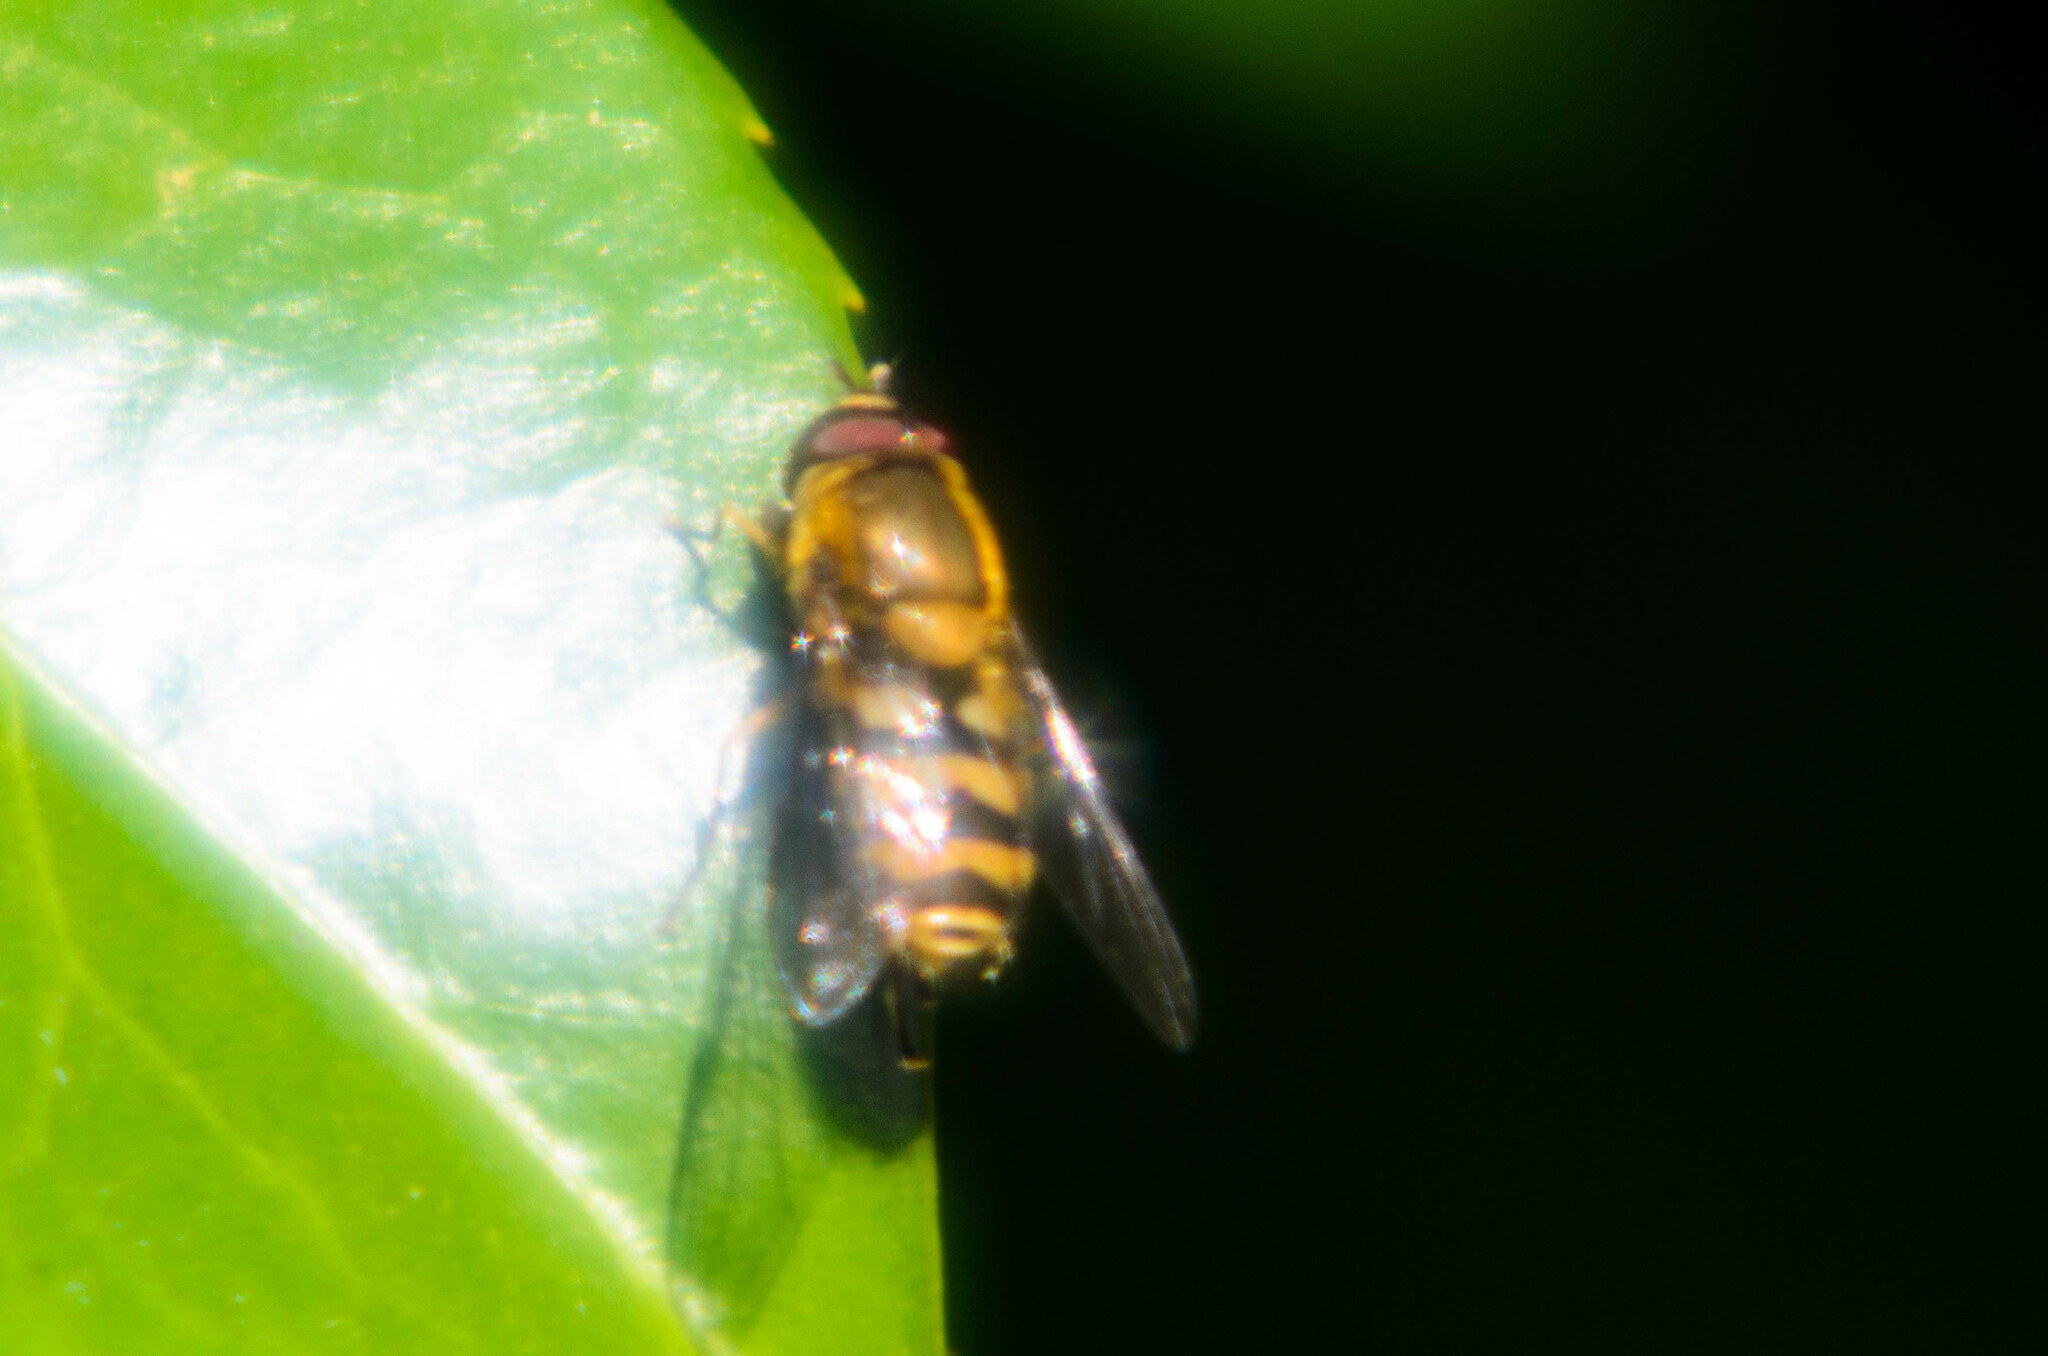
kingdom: Animalia
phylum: Arthropoda
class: Insecta
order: Diptera
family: Syrphidae
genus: Syrphus
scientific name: Syrphus
